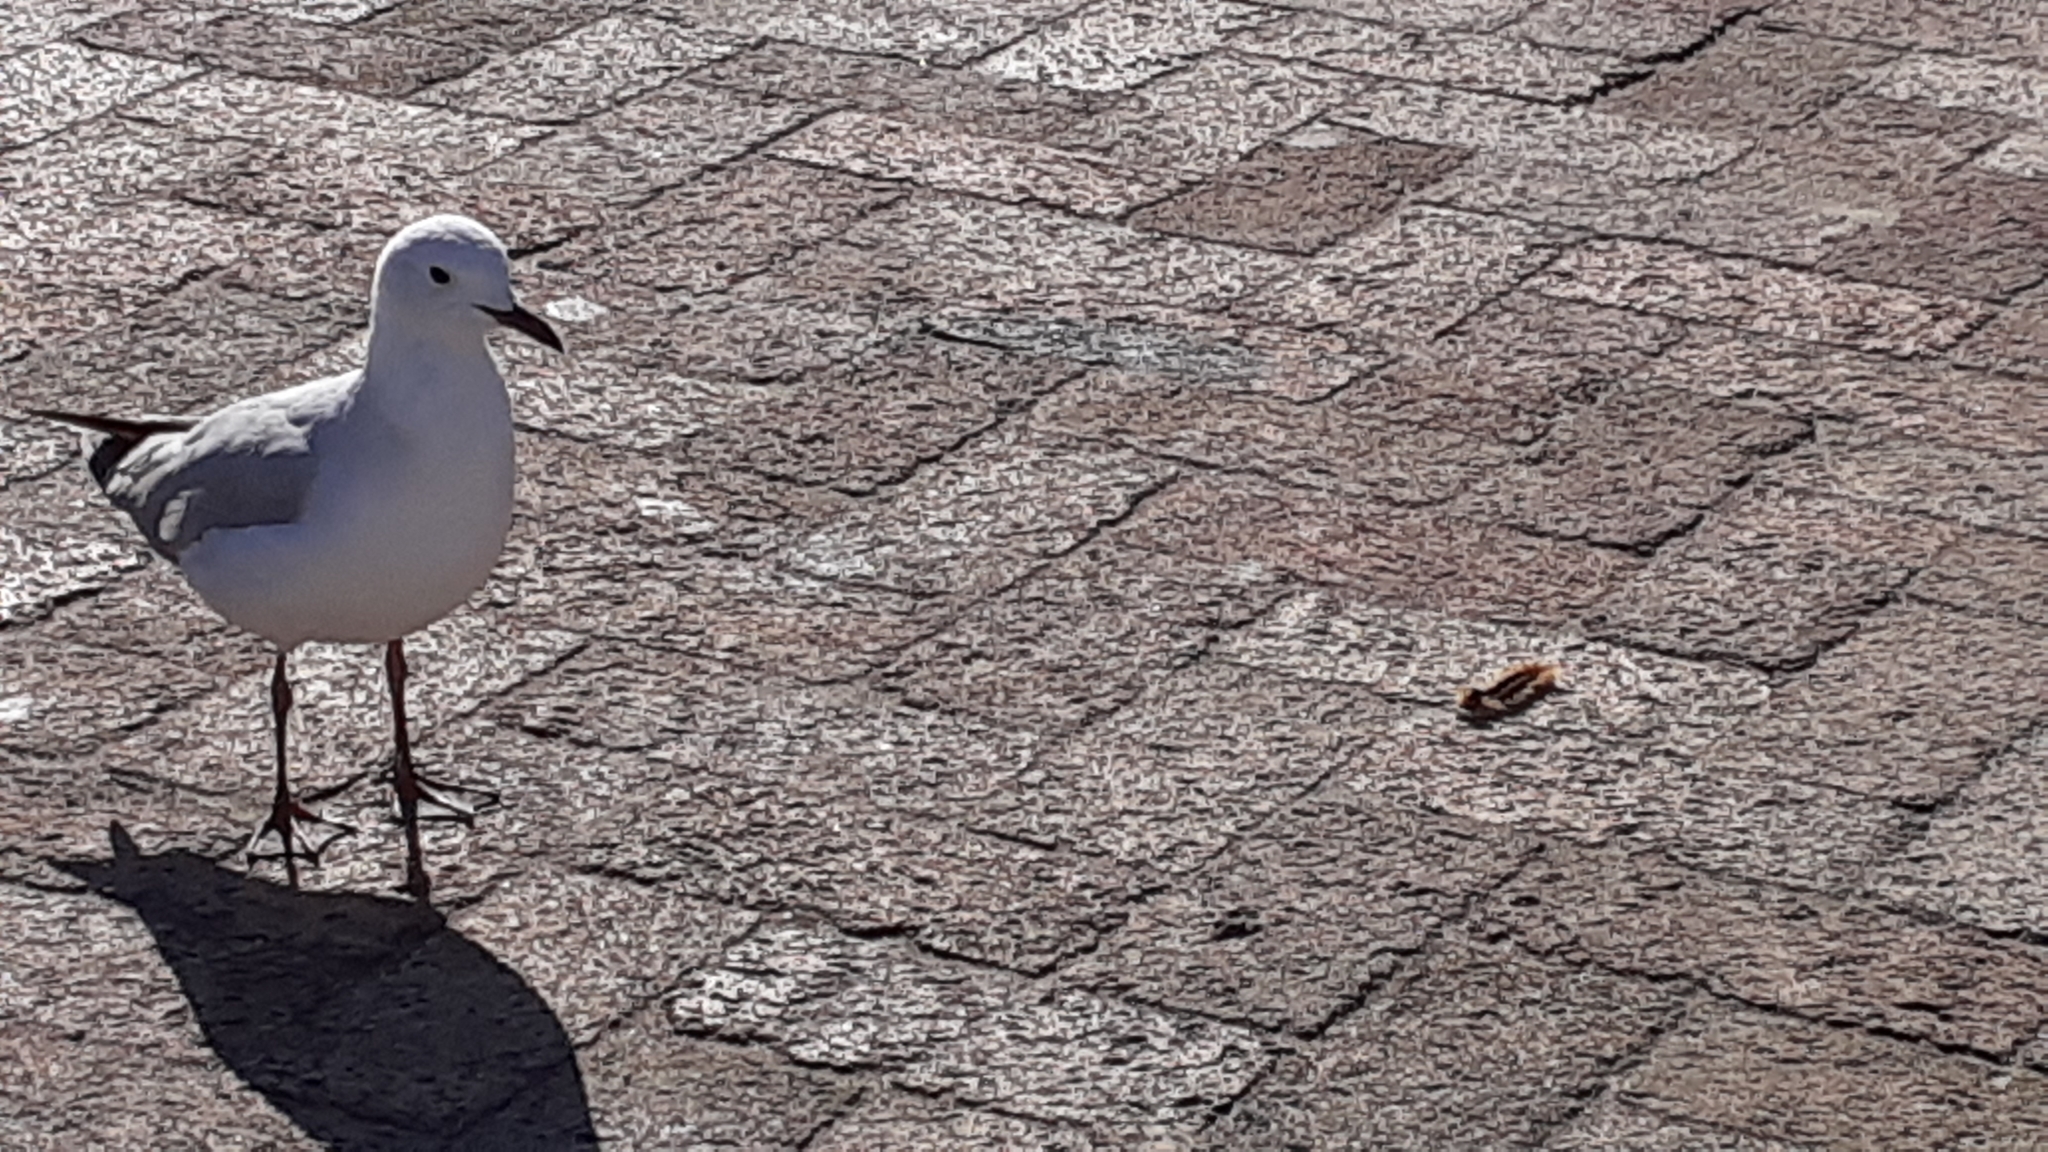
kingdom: Animalia
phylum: Arthropoda
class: Insecta
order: Lepidoptera
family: Lasiocampidae
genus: Eutricha
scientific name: Eutricha capensis
